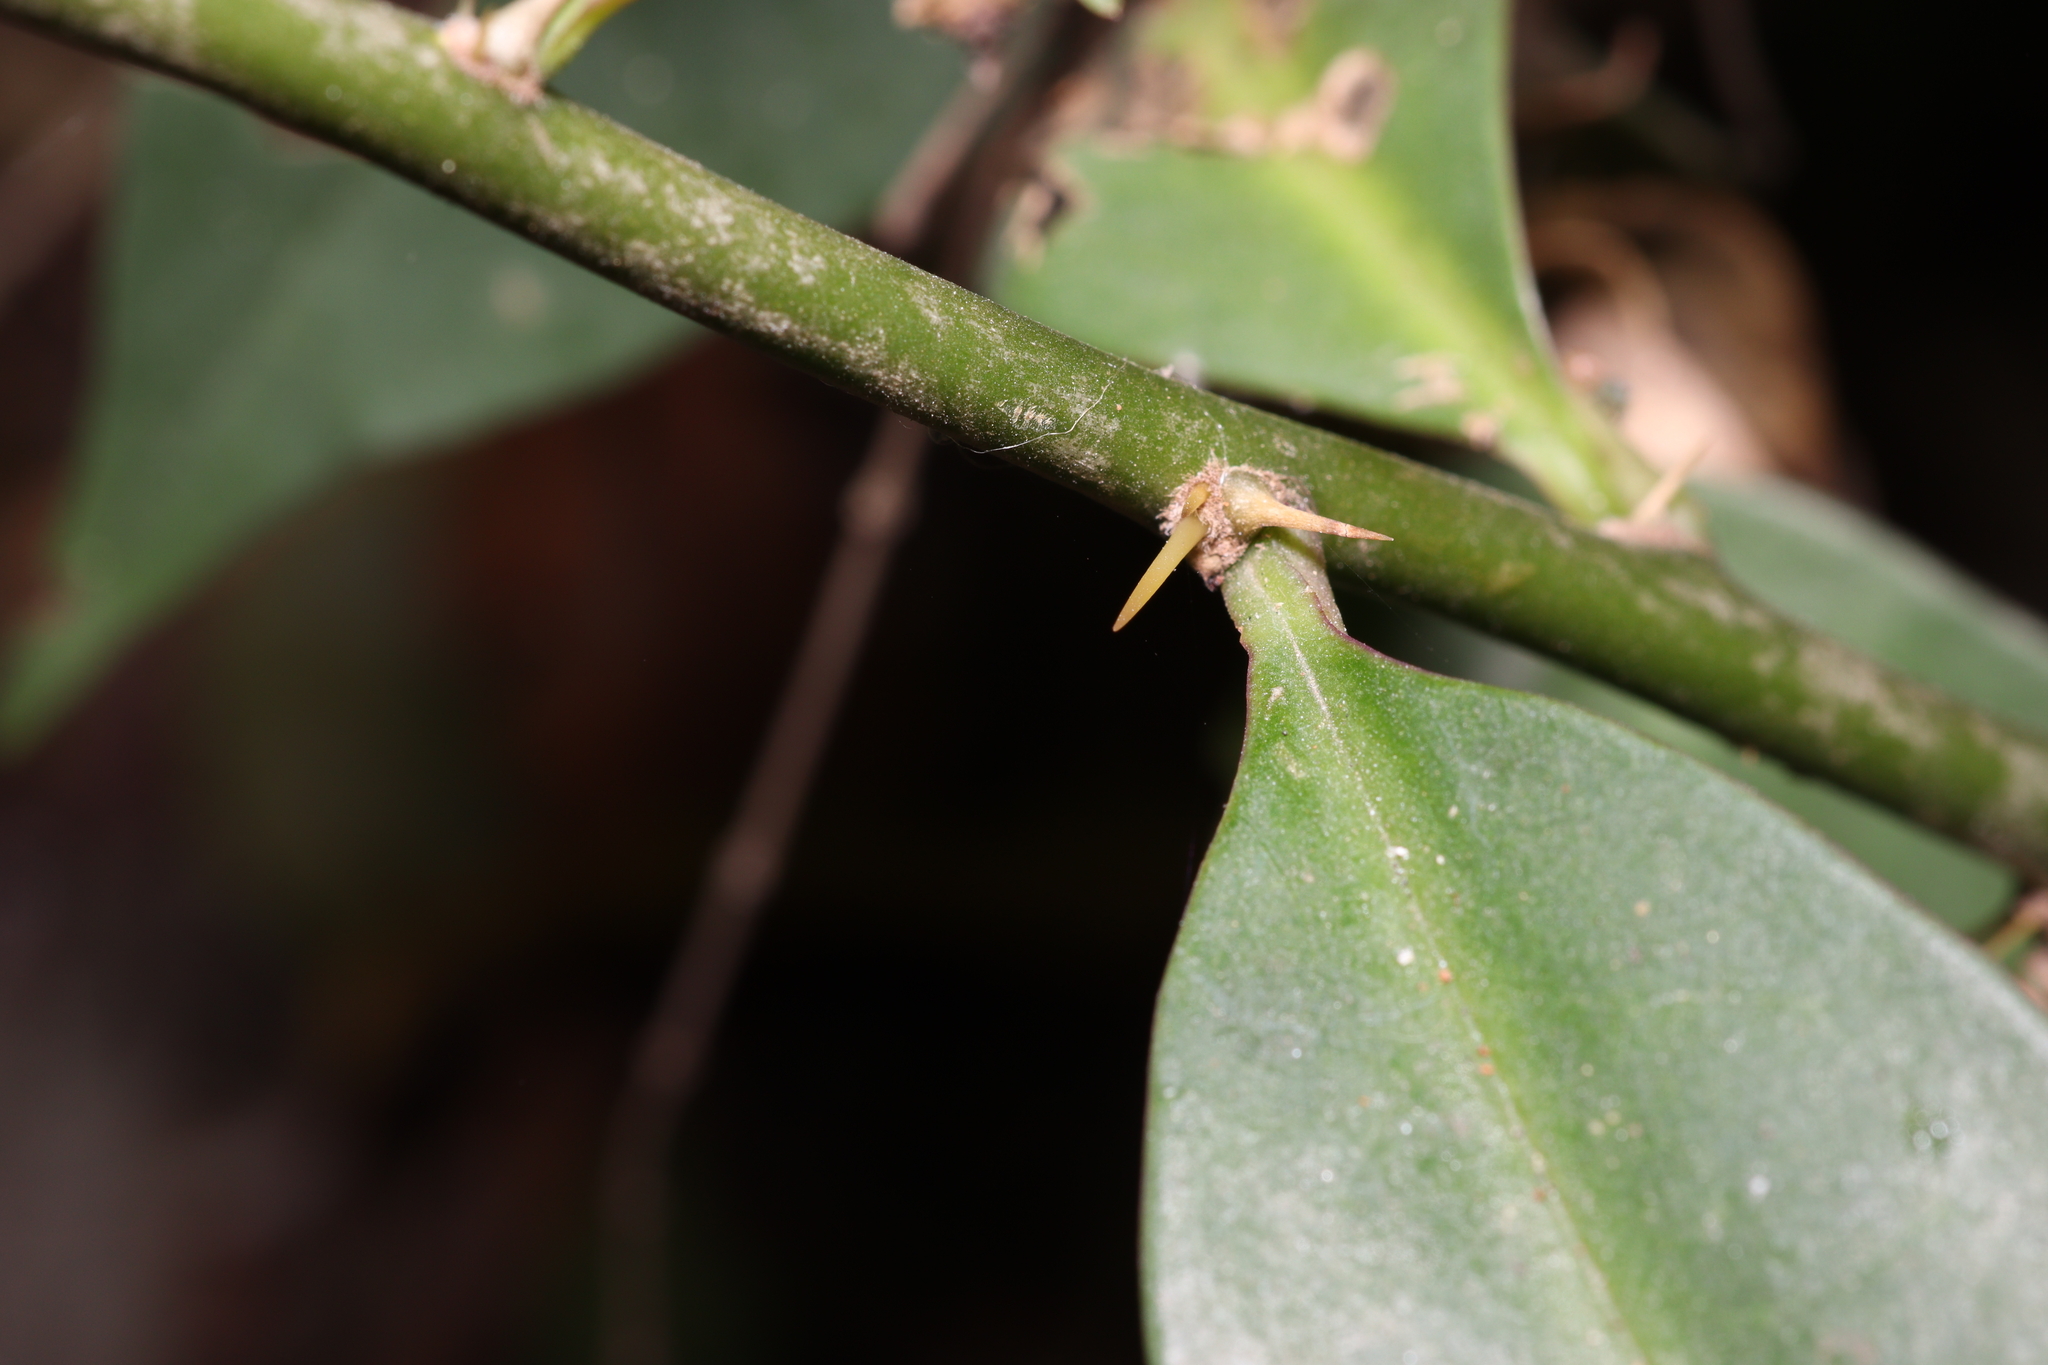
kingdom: Plantae
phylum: Tracheophyta
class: Magnoliopsida
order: Caryophyllales
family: Cactaceae
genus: Pereskia
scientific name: Pereskia aculeata
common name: Barbados gooseberry
